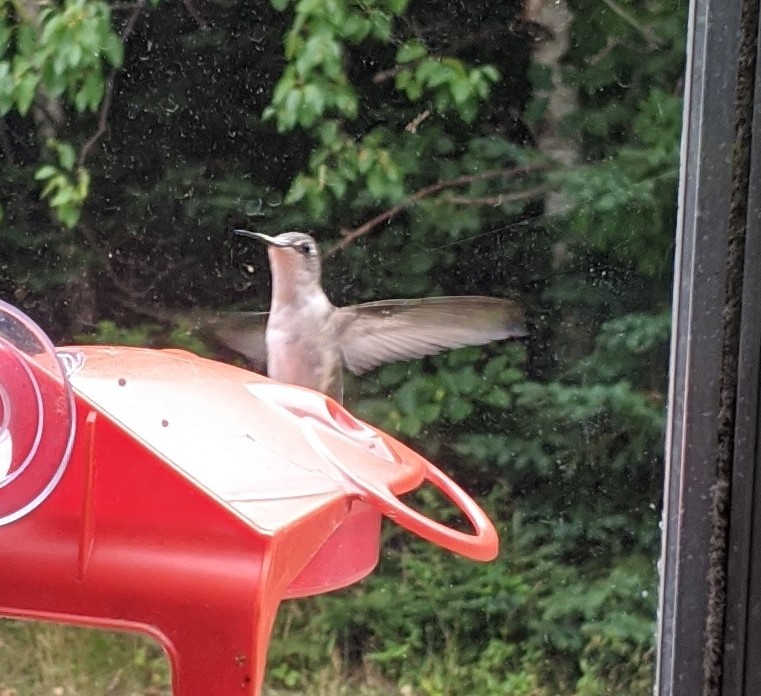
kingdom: Animalia
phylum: Chordata
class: Aves
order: Apodiformes
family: Trochilidae
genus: Archilochus
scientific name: Archilochus colubris
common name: Ruby-throated hummingbird
